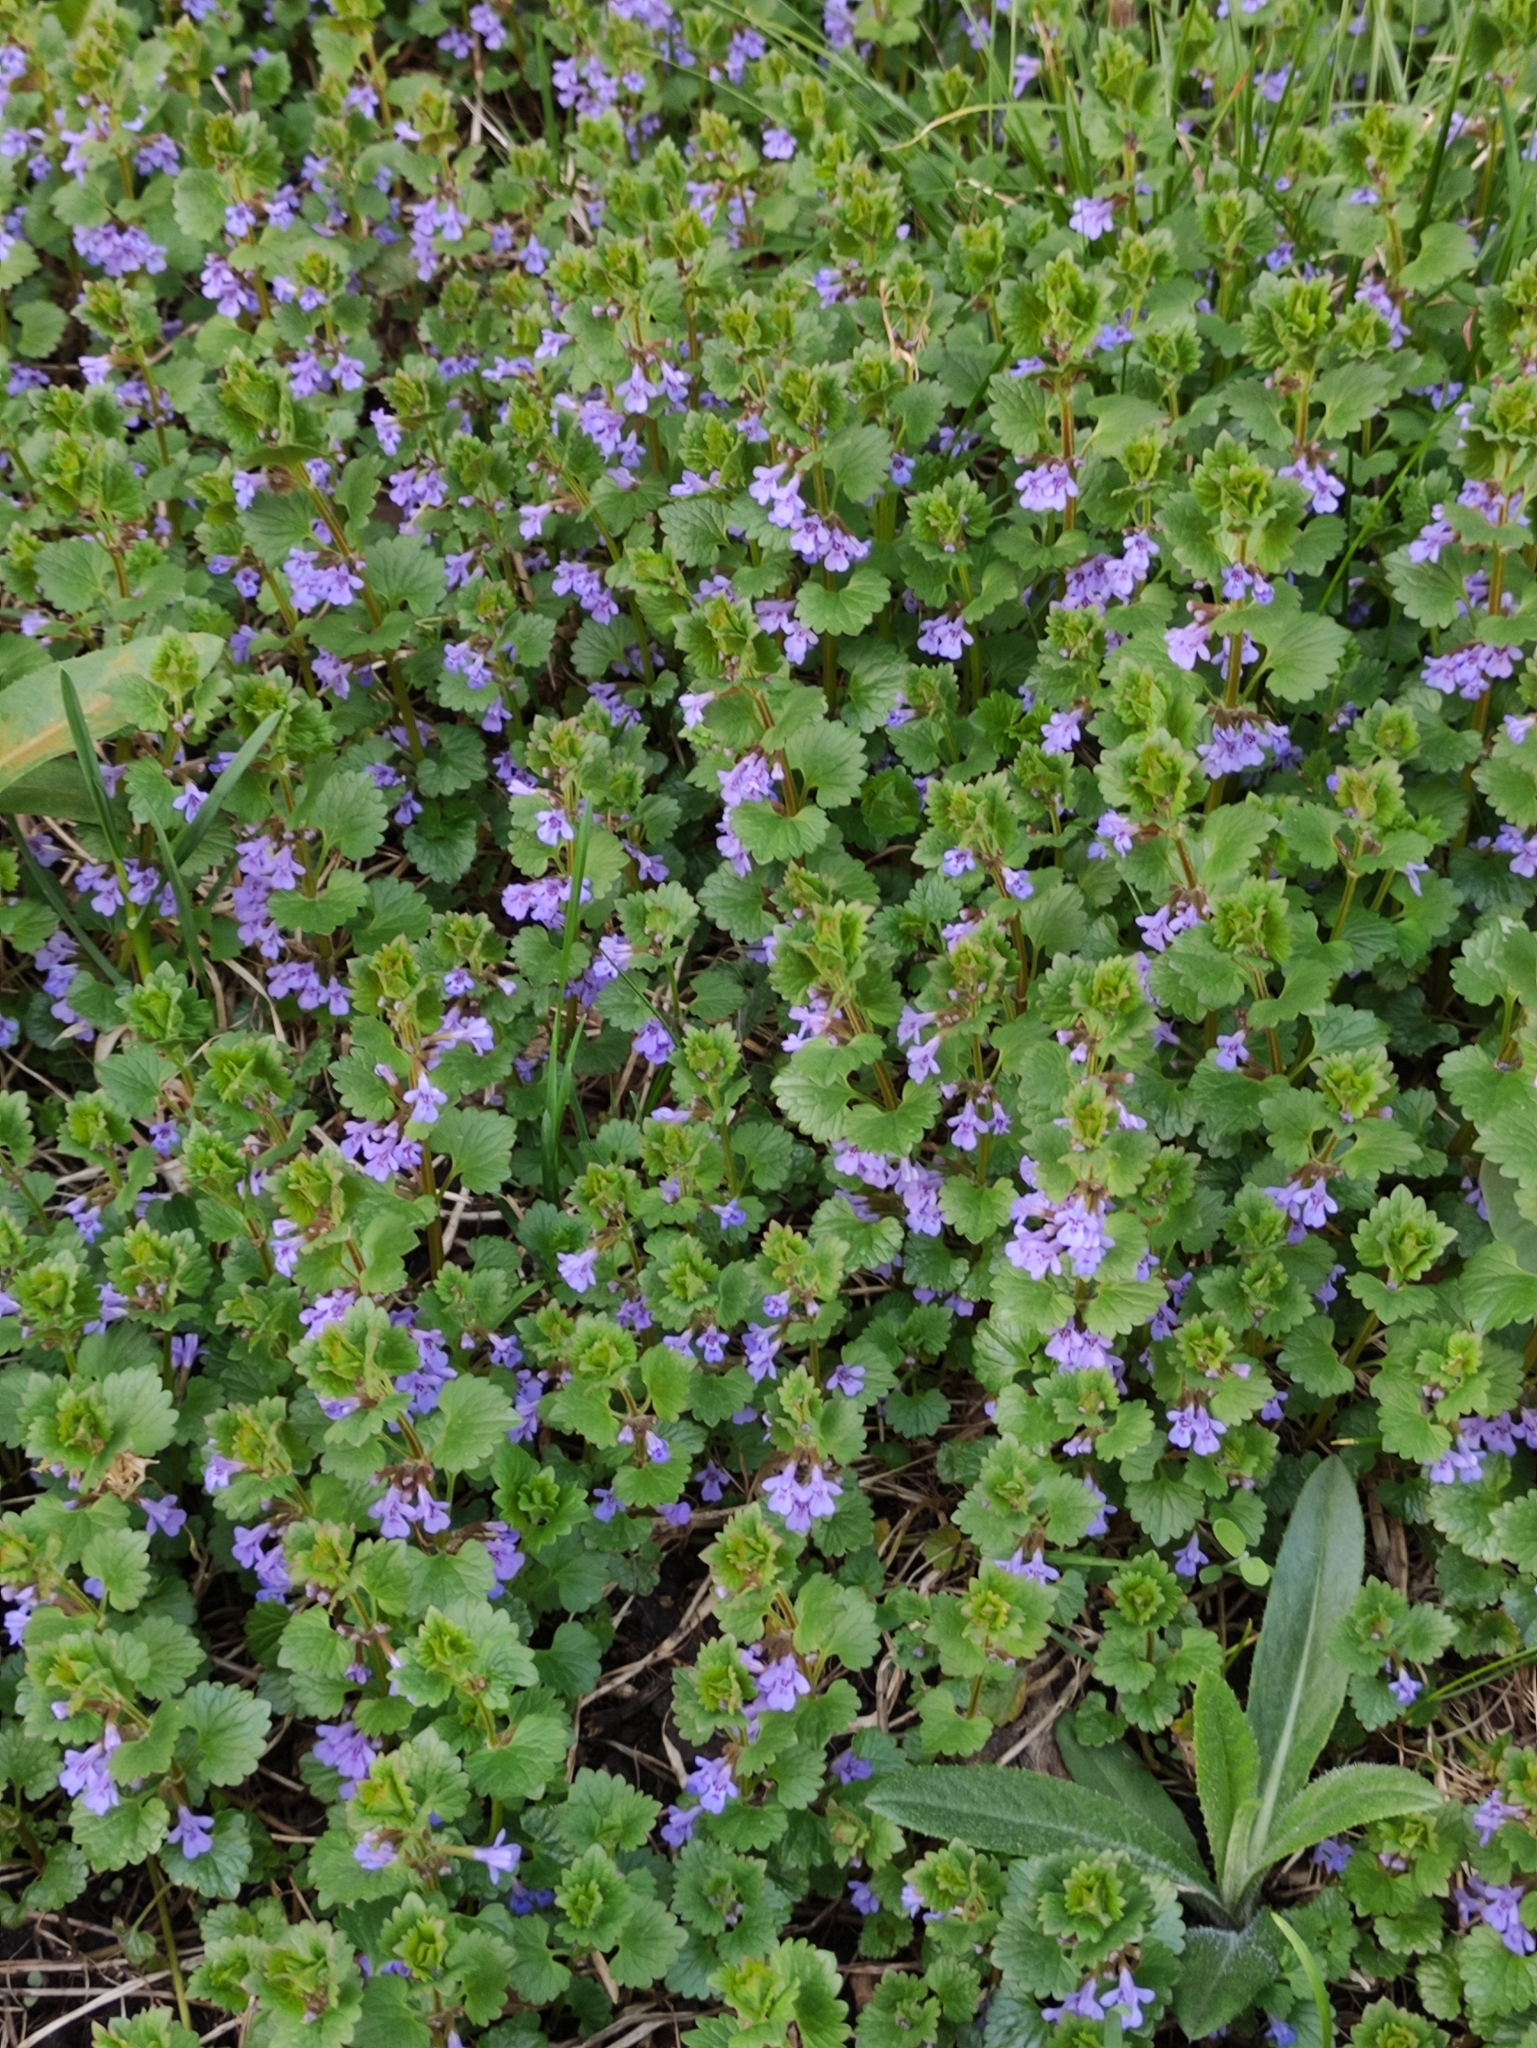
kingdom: Plantae
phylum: Tracheophyta
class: Magnoliopsida
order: Lamiales
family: Lamiaceae
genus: Glechoma
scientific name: Glechoma hederacea
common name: Ground ivy
